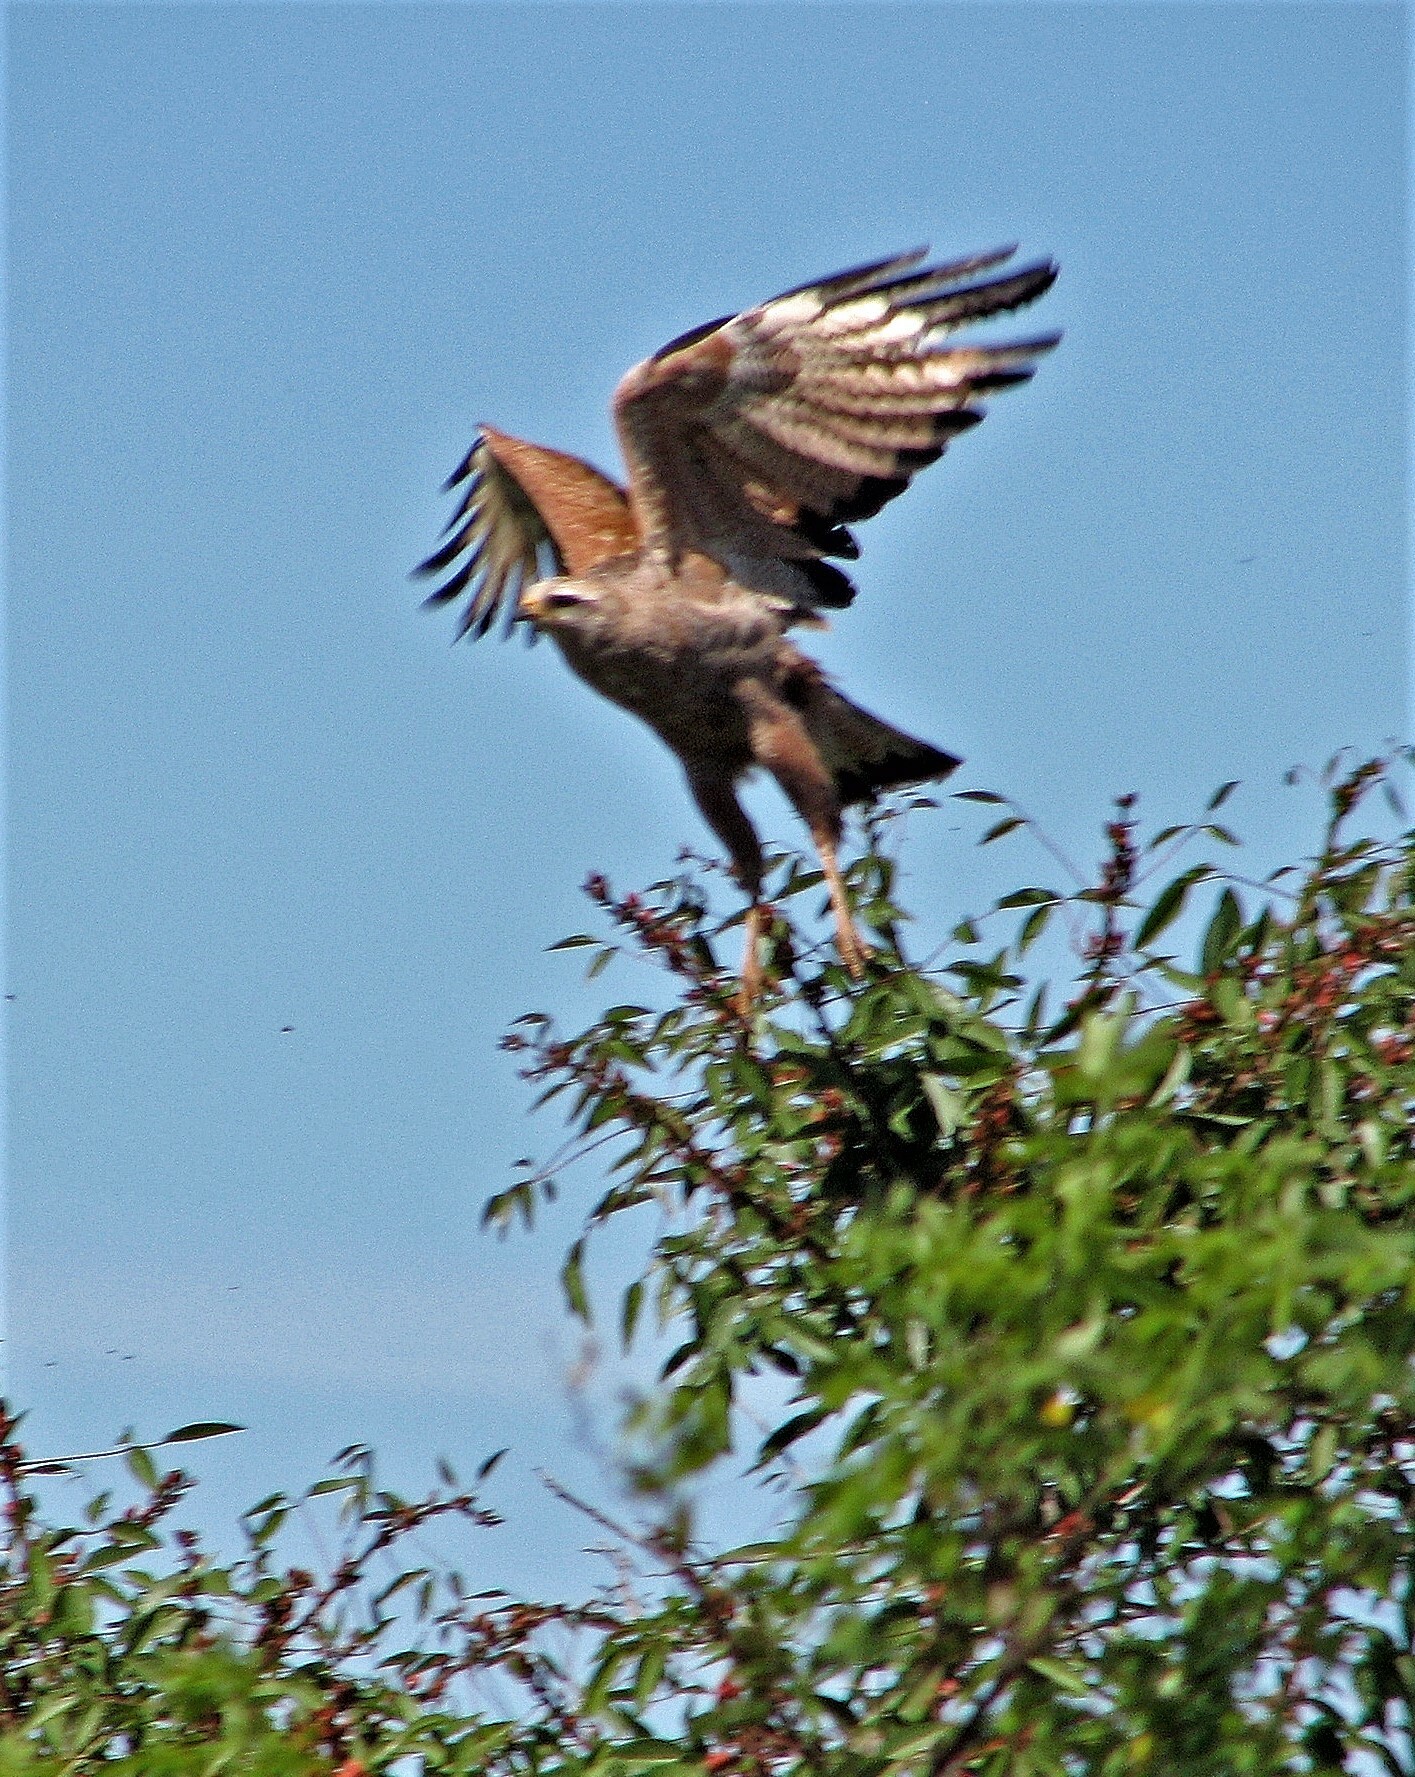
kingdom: Animalia
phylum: Chordata
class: Aves
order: Accipitriformes
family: Accipitridae
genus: Buteogallus
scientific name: Buteogallus meridionalis
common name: Savanna hawk
